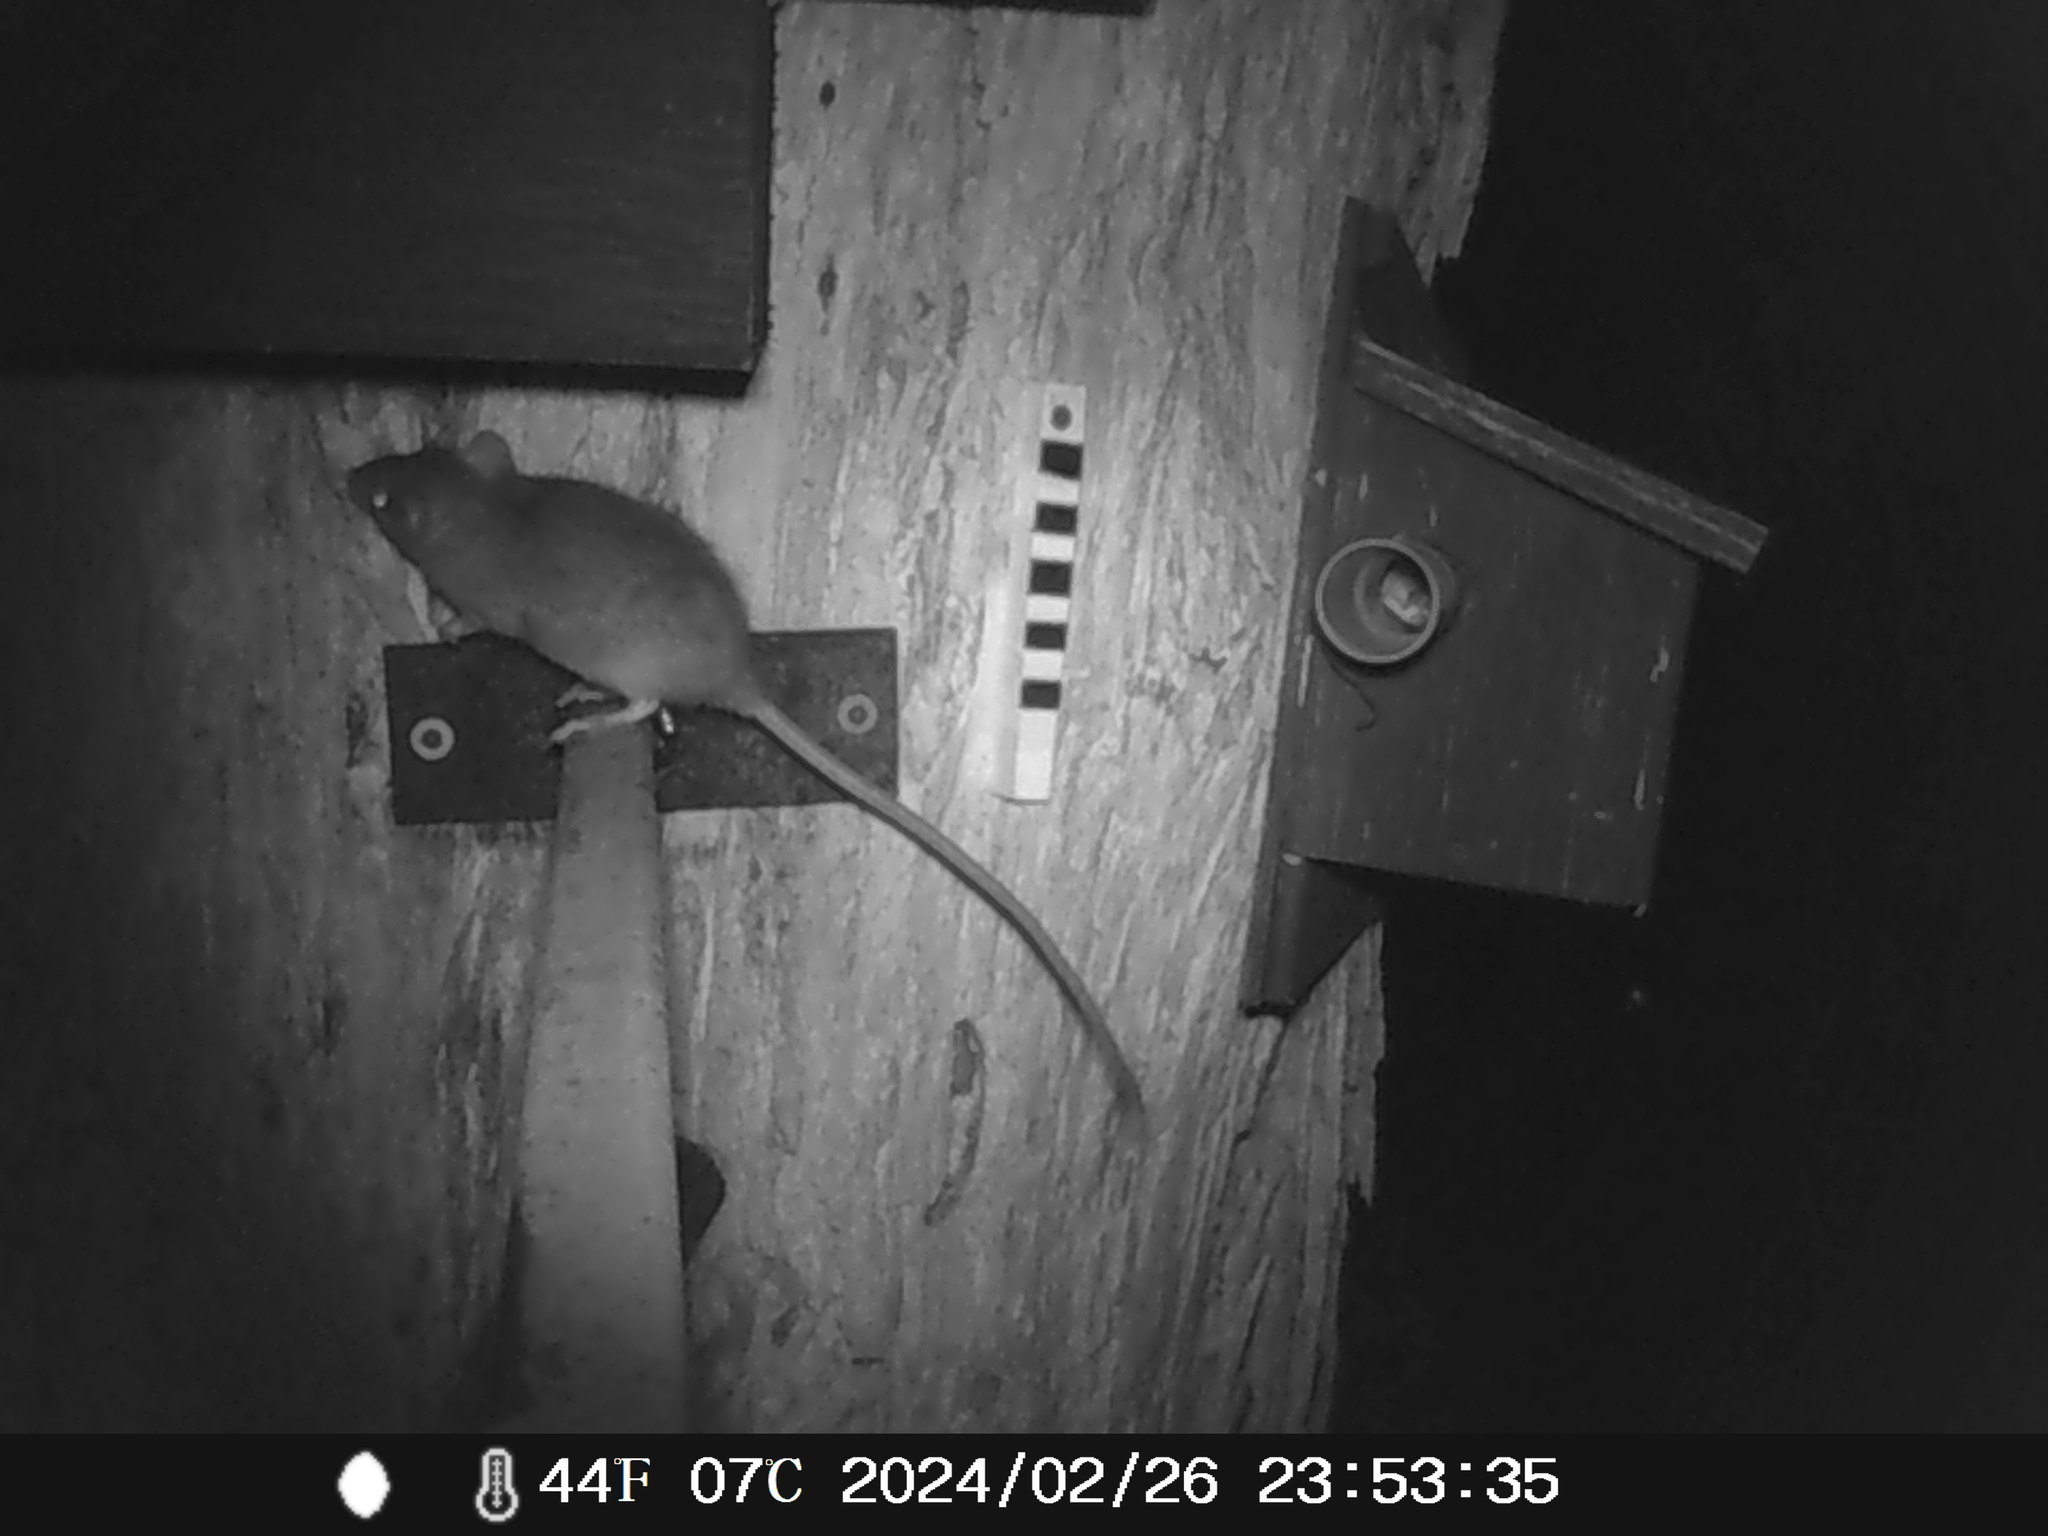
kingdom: Animalia
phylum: Chordata
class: Mammalia
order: Rodentia
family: Muridae
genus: Rattus
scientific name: Rattus rattus
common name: Black rat
